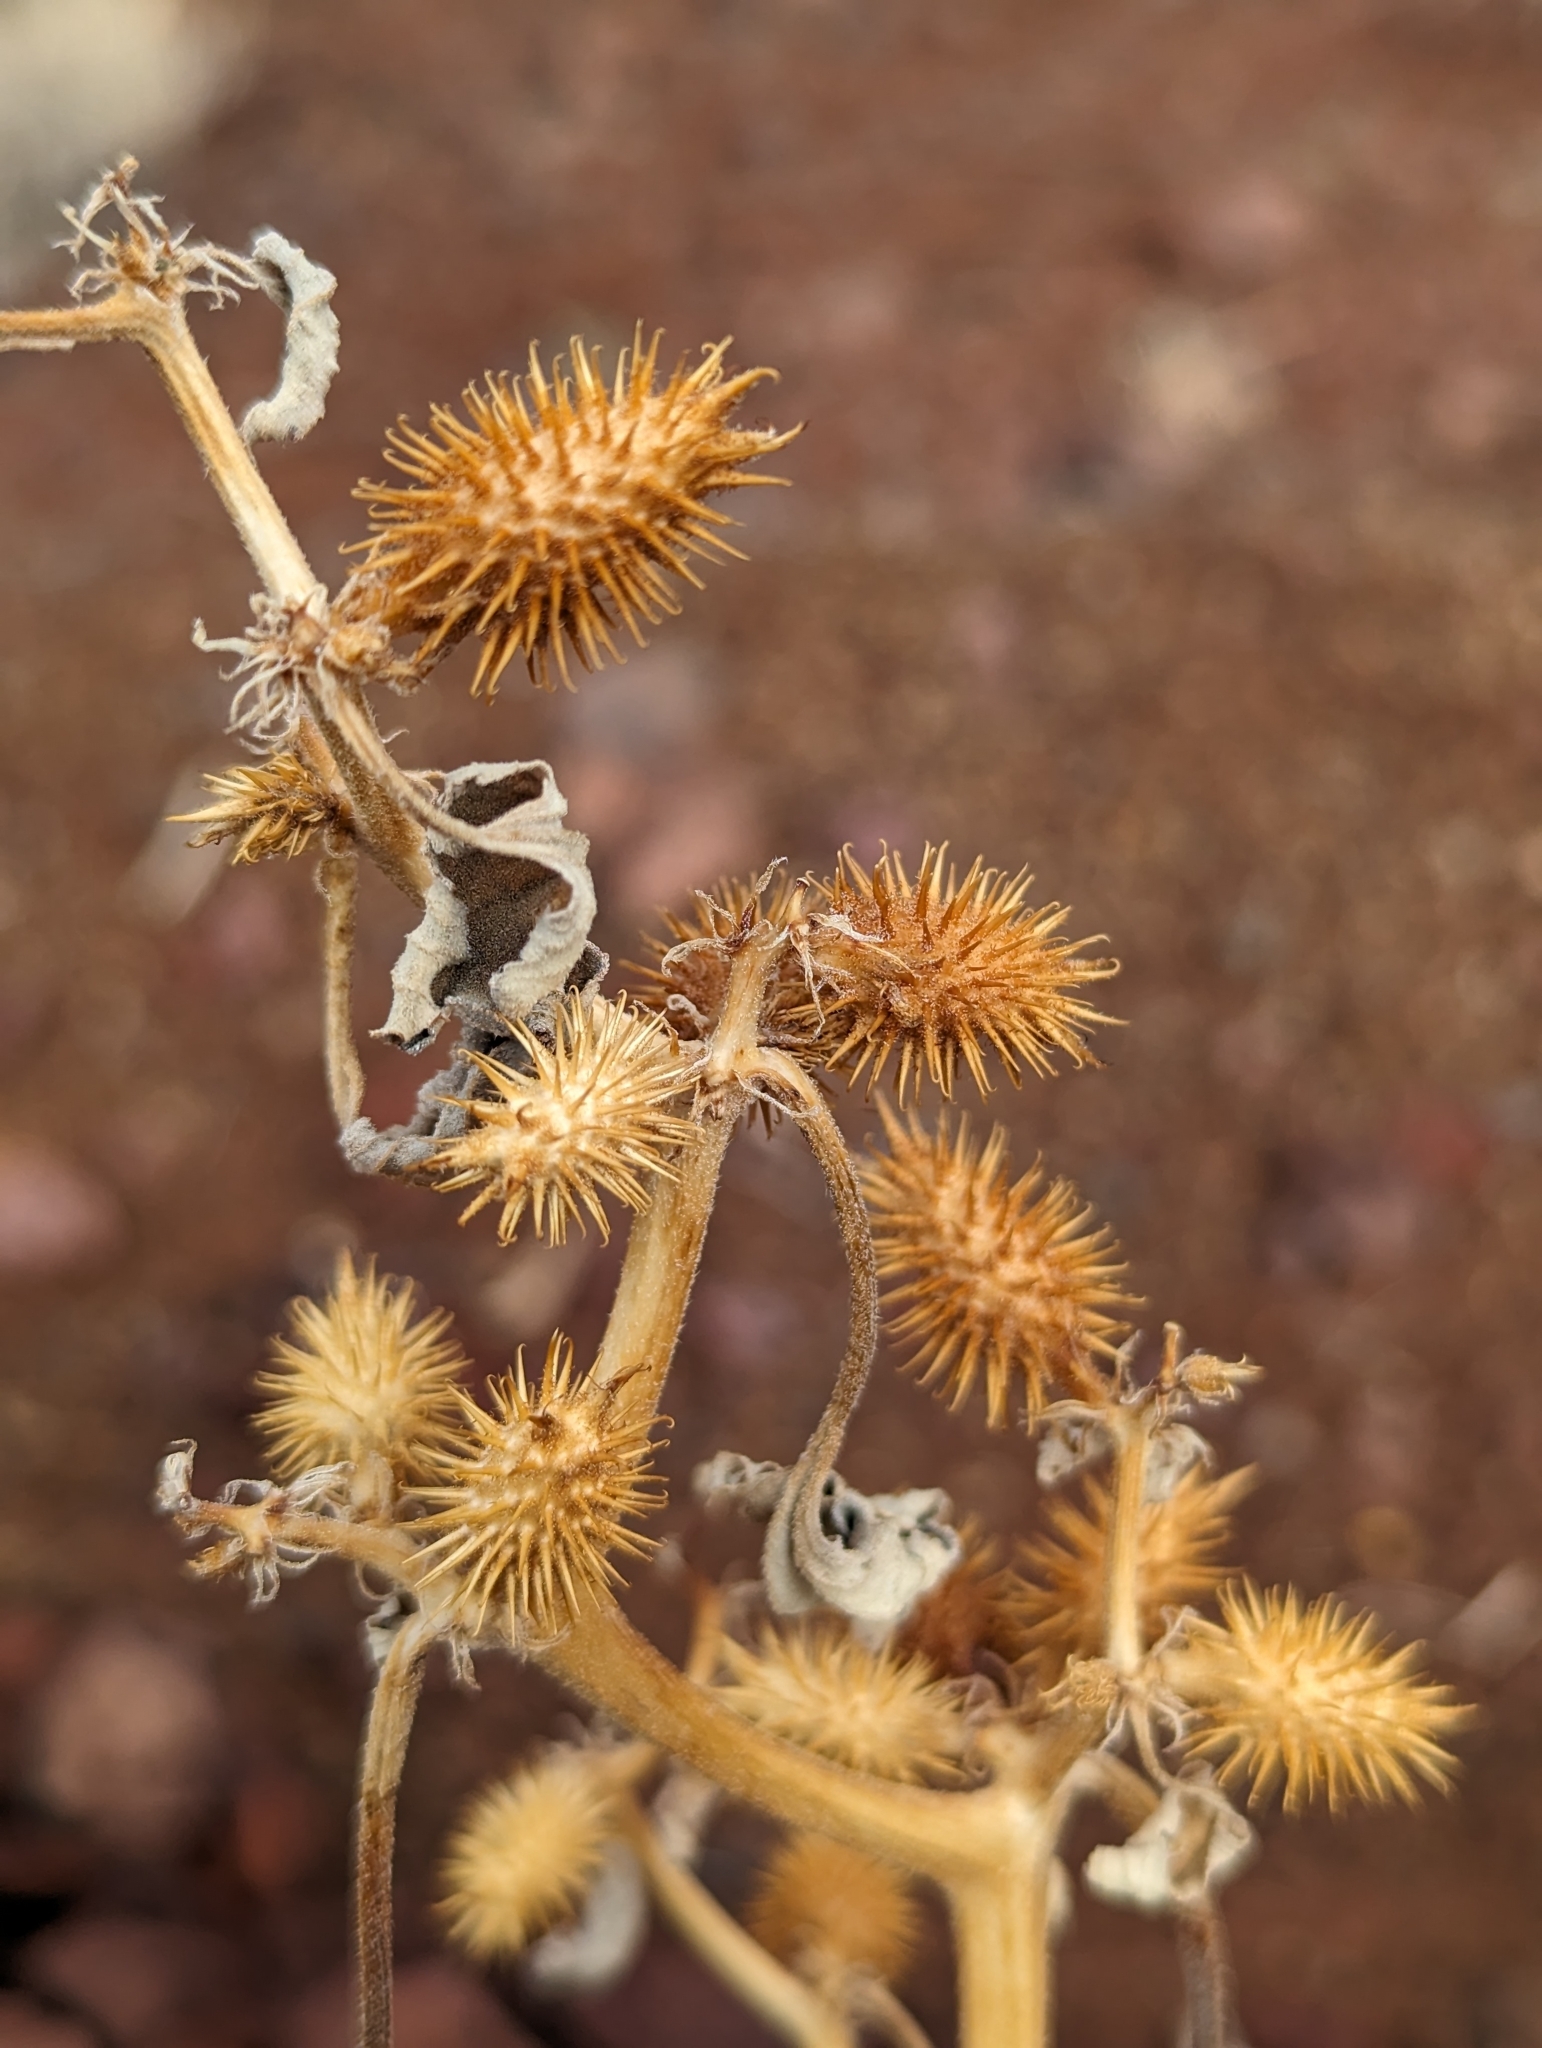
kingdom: Plantae
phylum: Tracheophyta
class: Magnoliopsida
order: Asterales
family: Asteraceae
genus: Xanthium
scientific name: Xanthium strumarium
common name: Rough cocklebur
